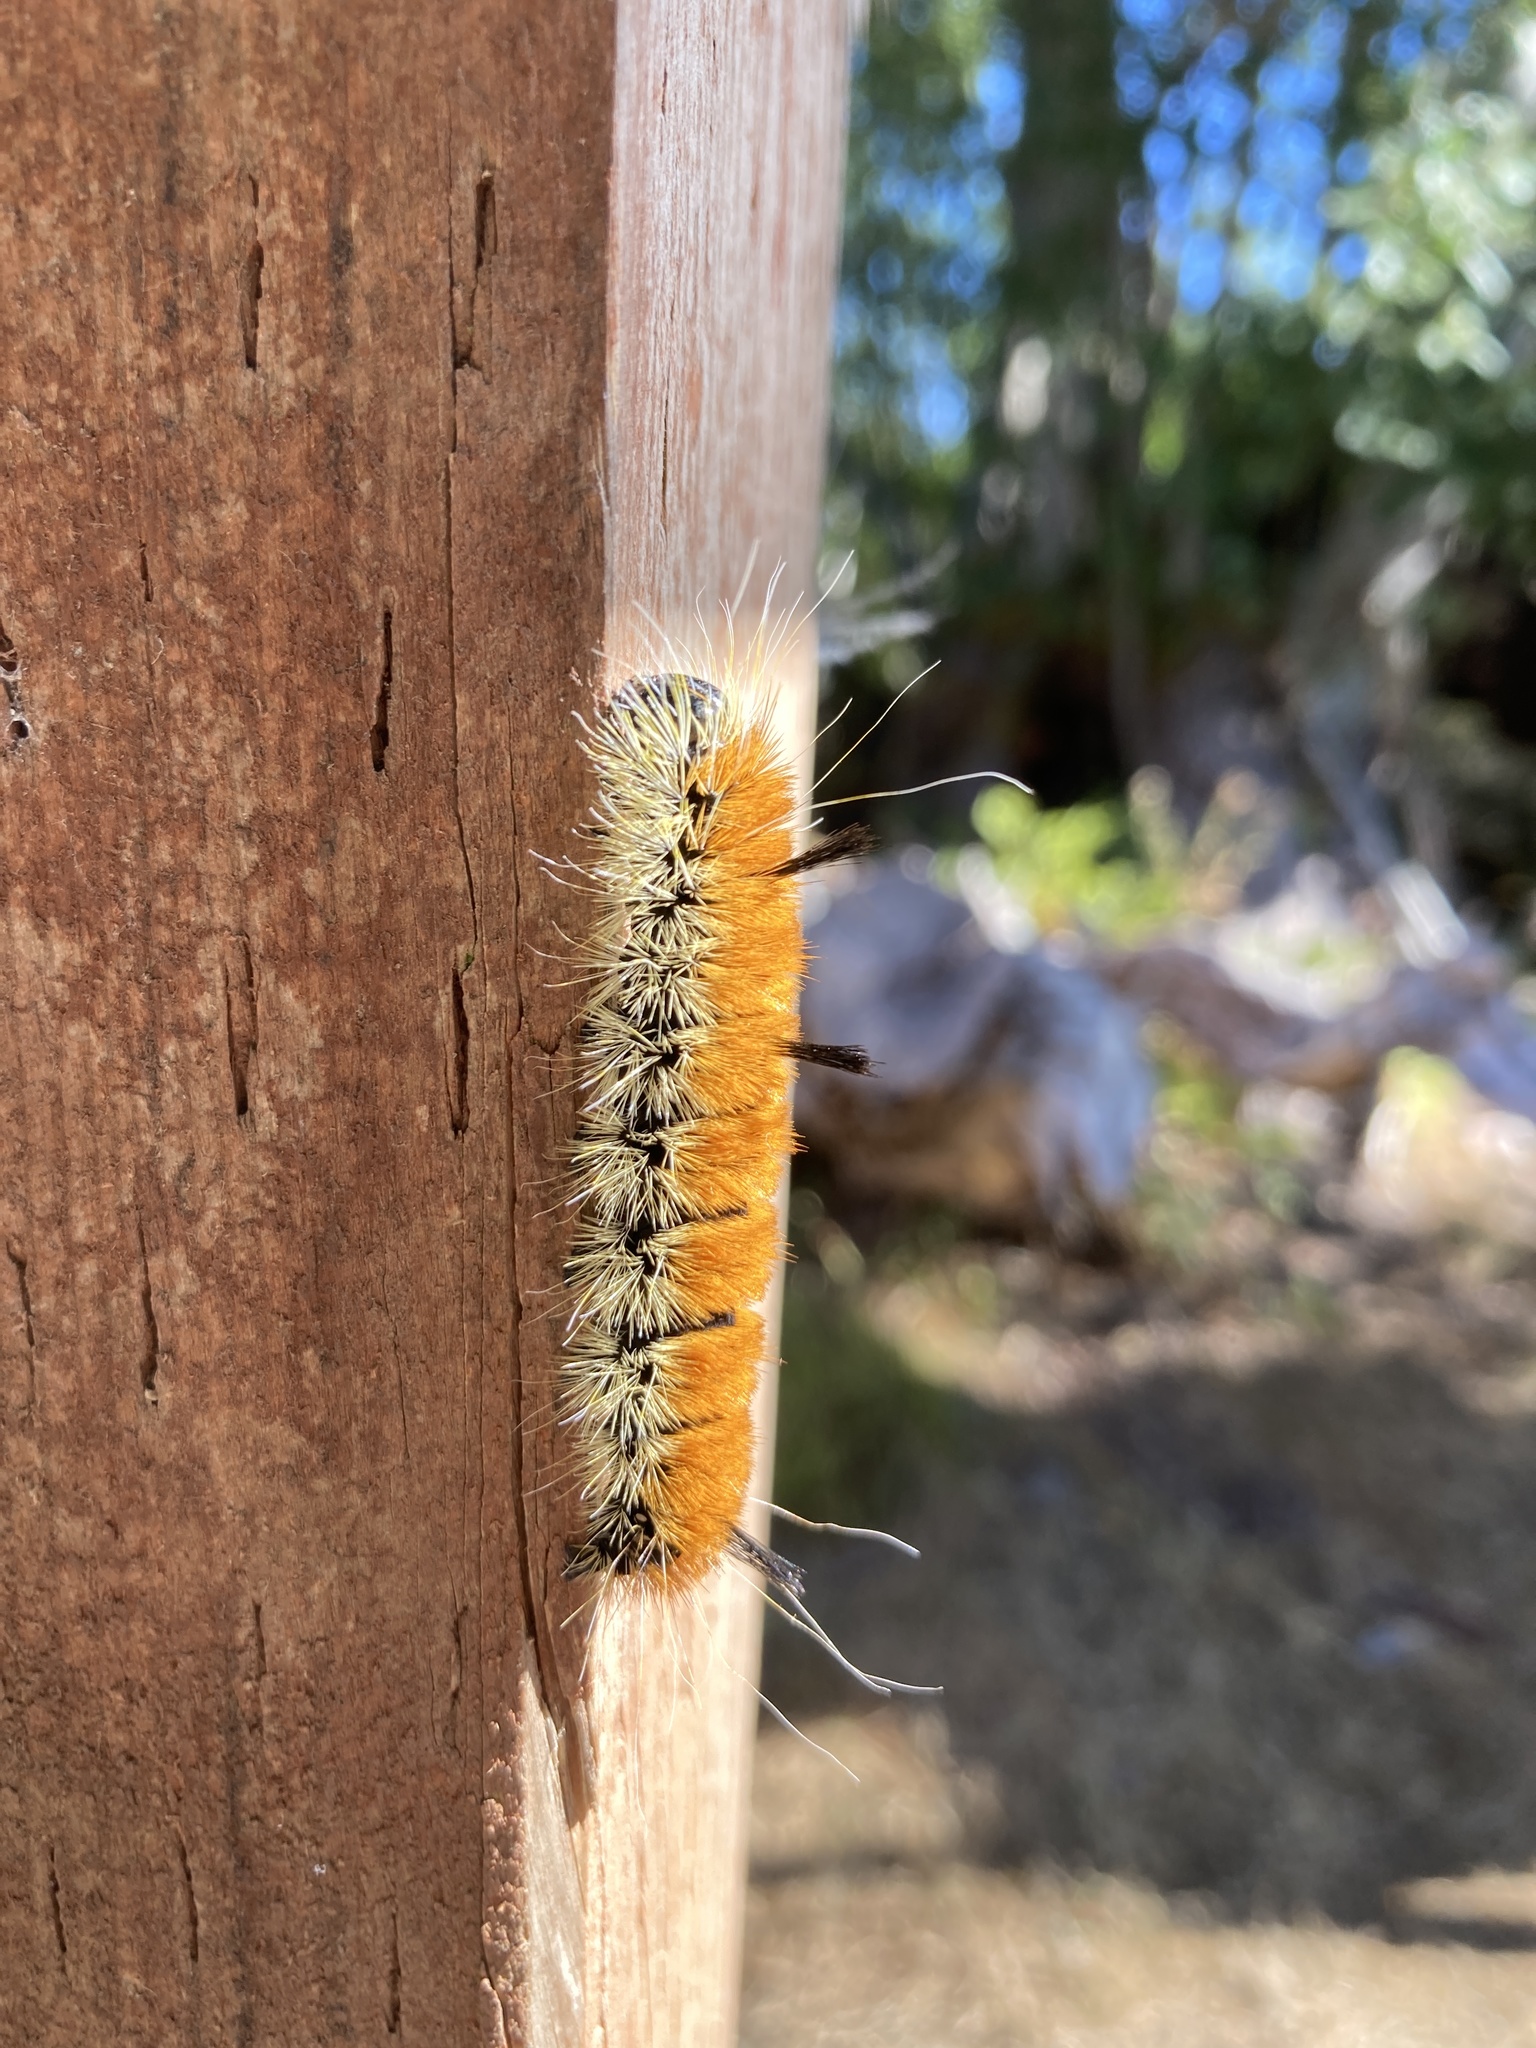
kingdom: Animalia
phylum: Arthropoda
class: Insecta
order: Lepidoptera
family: Noctuidae
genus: Acronicta
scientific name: Acronicta insita
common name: Large gray dagger
